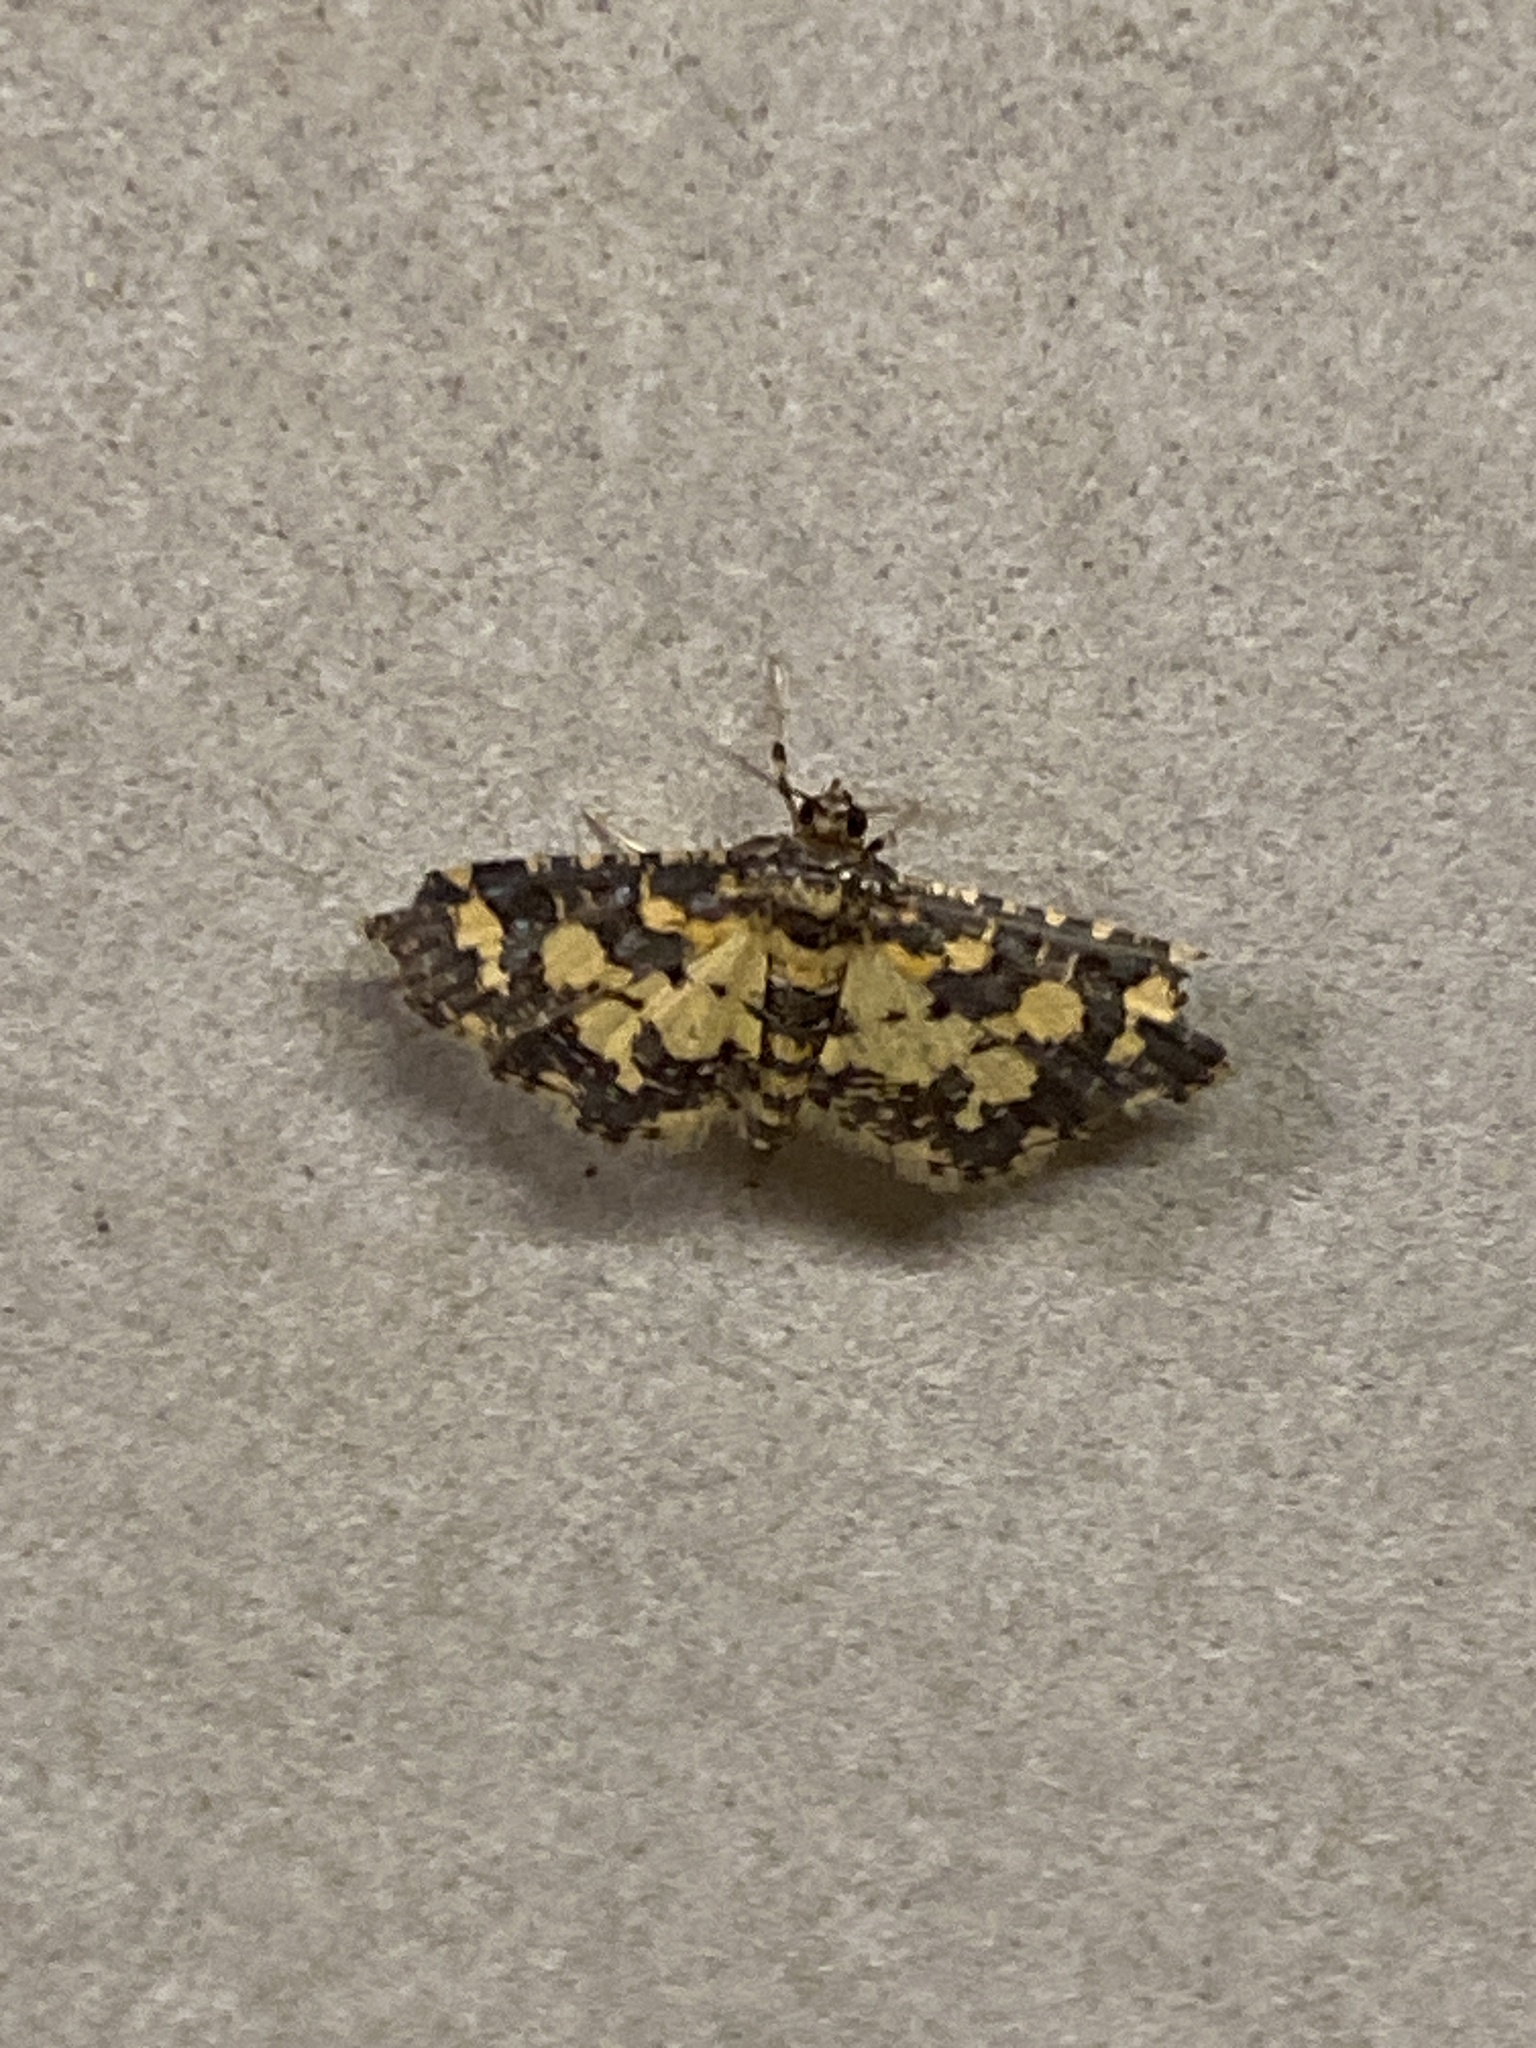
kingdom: Animalia
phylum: Arthropoda
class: Insecta
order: Lepidoptera
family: Crambidae
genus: Eurrhyparodes
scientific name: Eurrhyparodes bracteolalis
